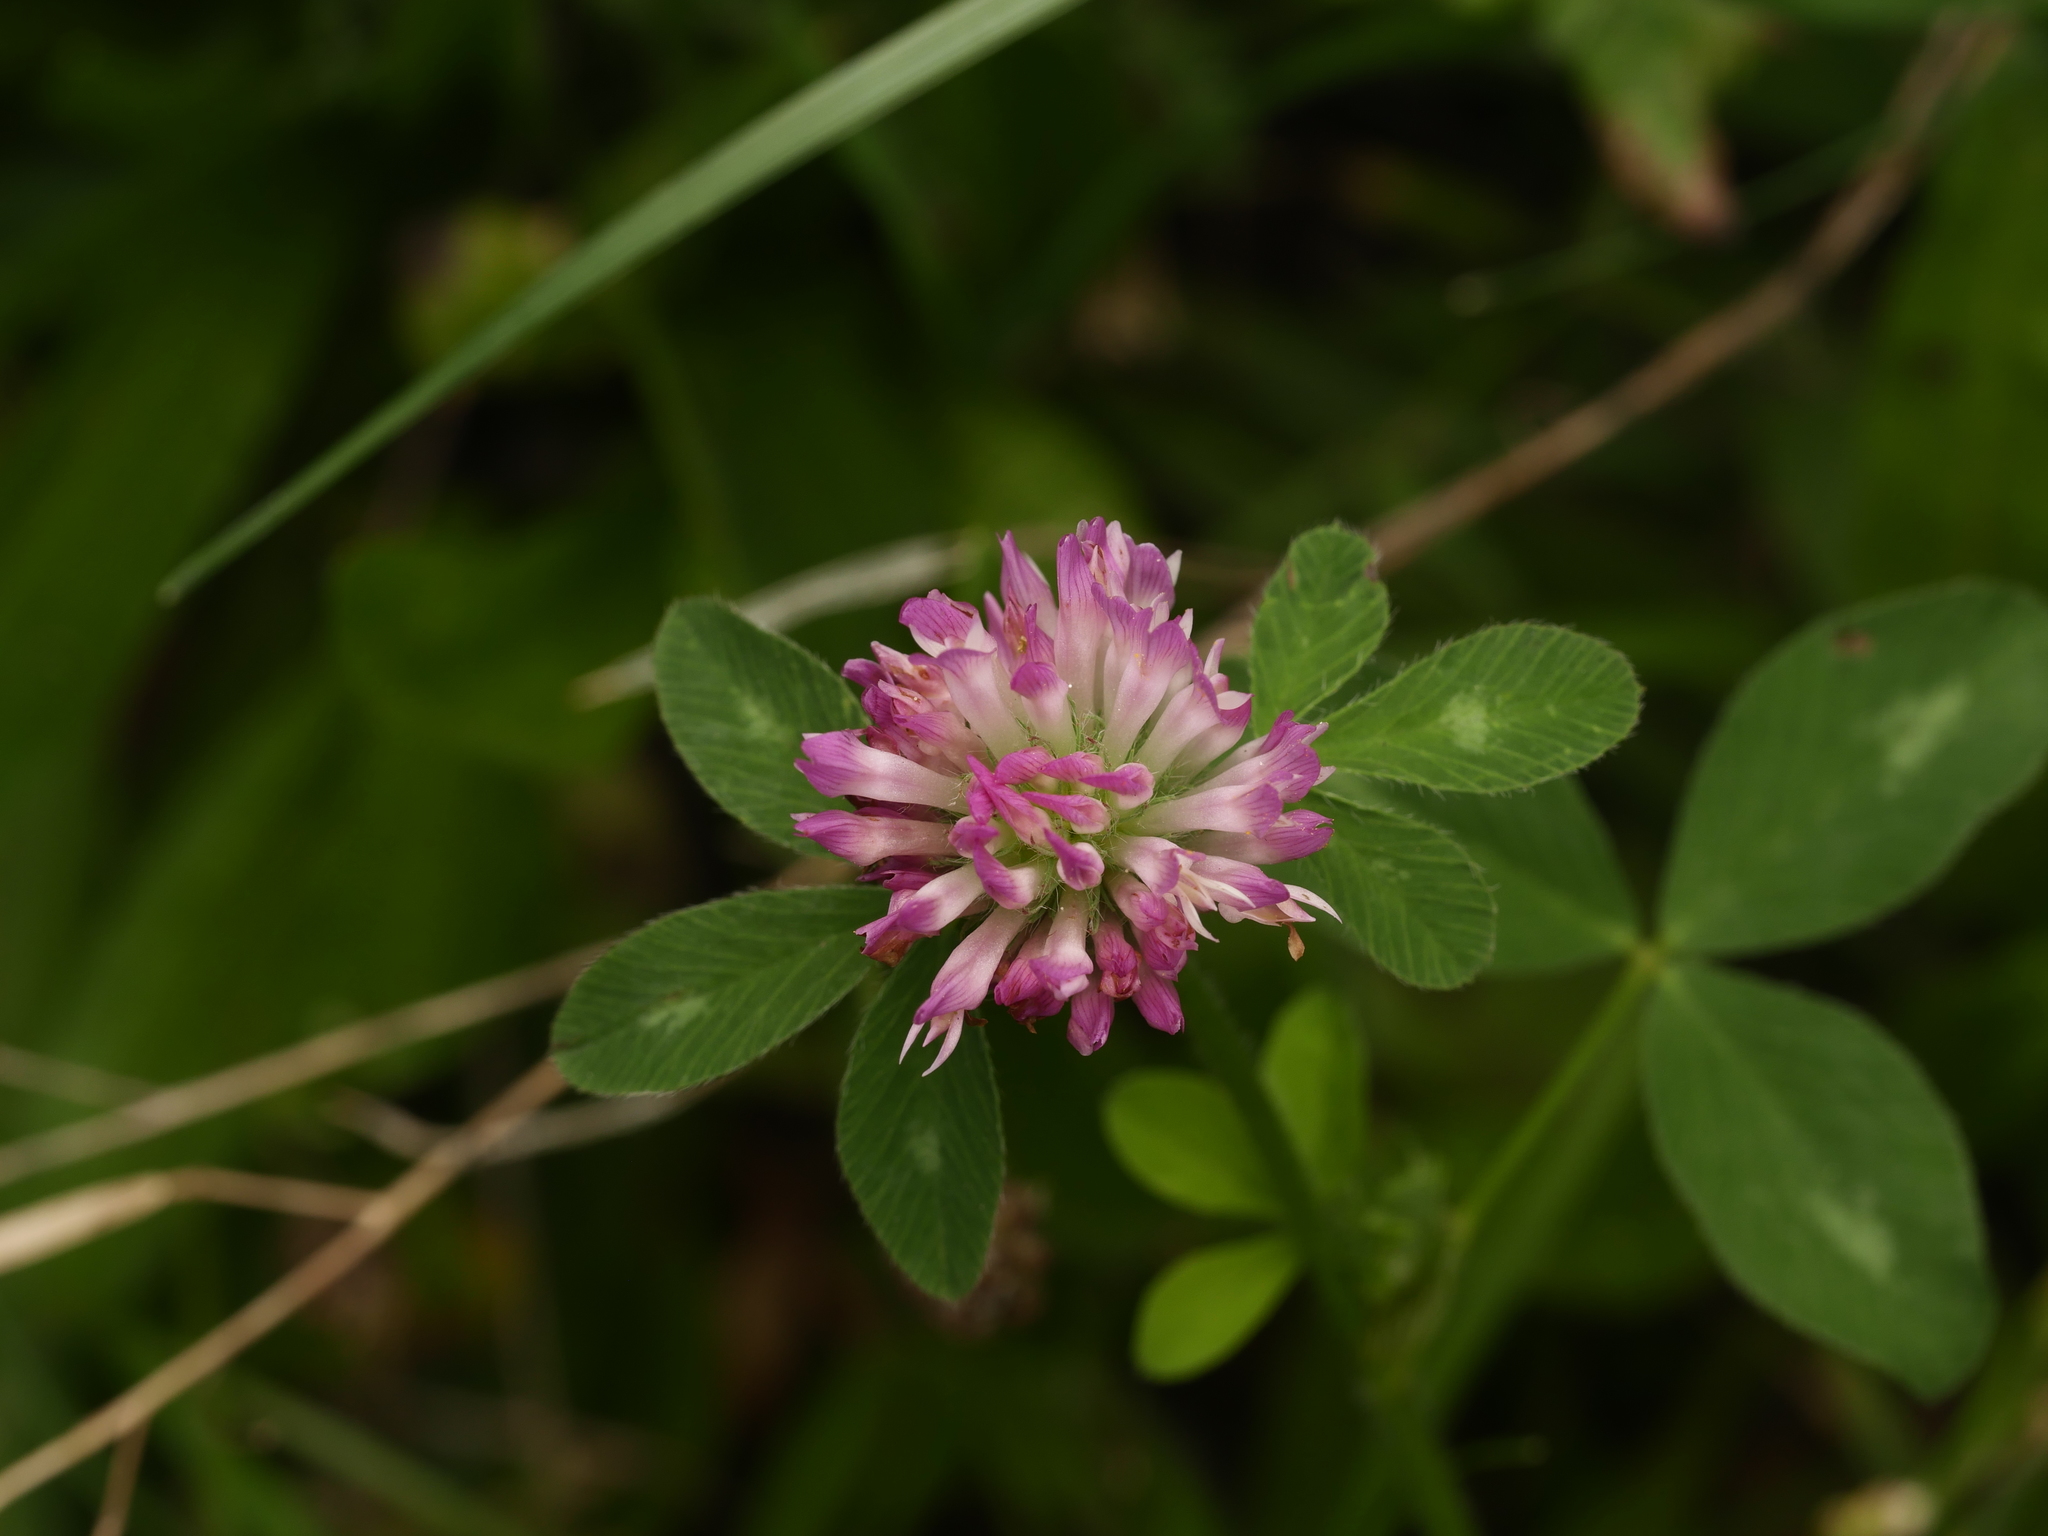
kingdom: Plantae
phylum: Tracheophyta
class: Magnoliopsida
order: Fabales
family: Fabaceae
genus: Trifolium
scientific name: Trifolium pratense
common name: Red clover
